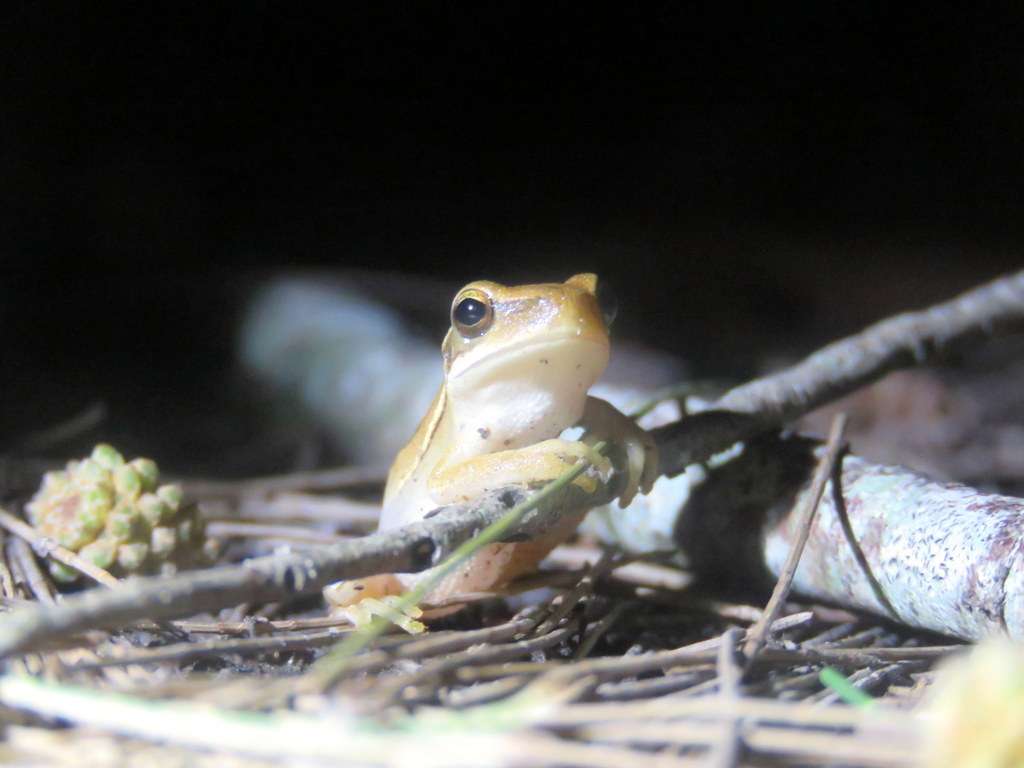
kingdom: Animalia
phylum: Chordata
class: Amphibia
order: Anura
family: Hylidae
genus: Boana
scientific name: Boana pulchella
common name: Montevideo treefrog
